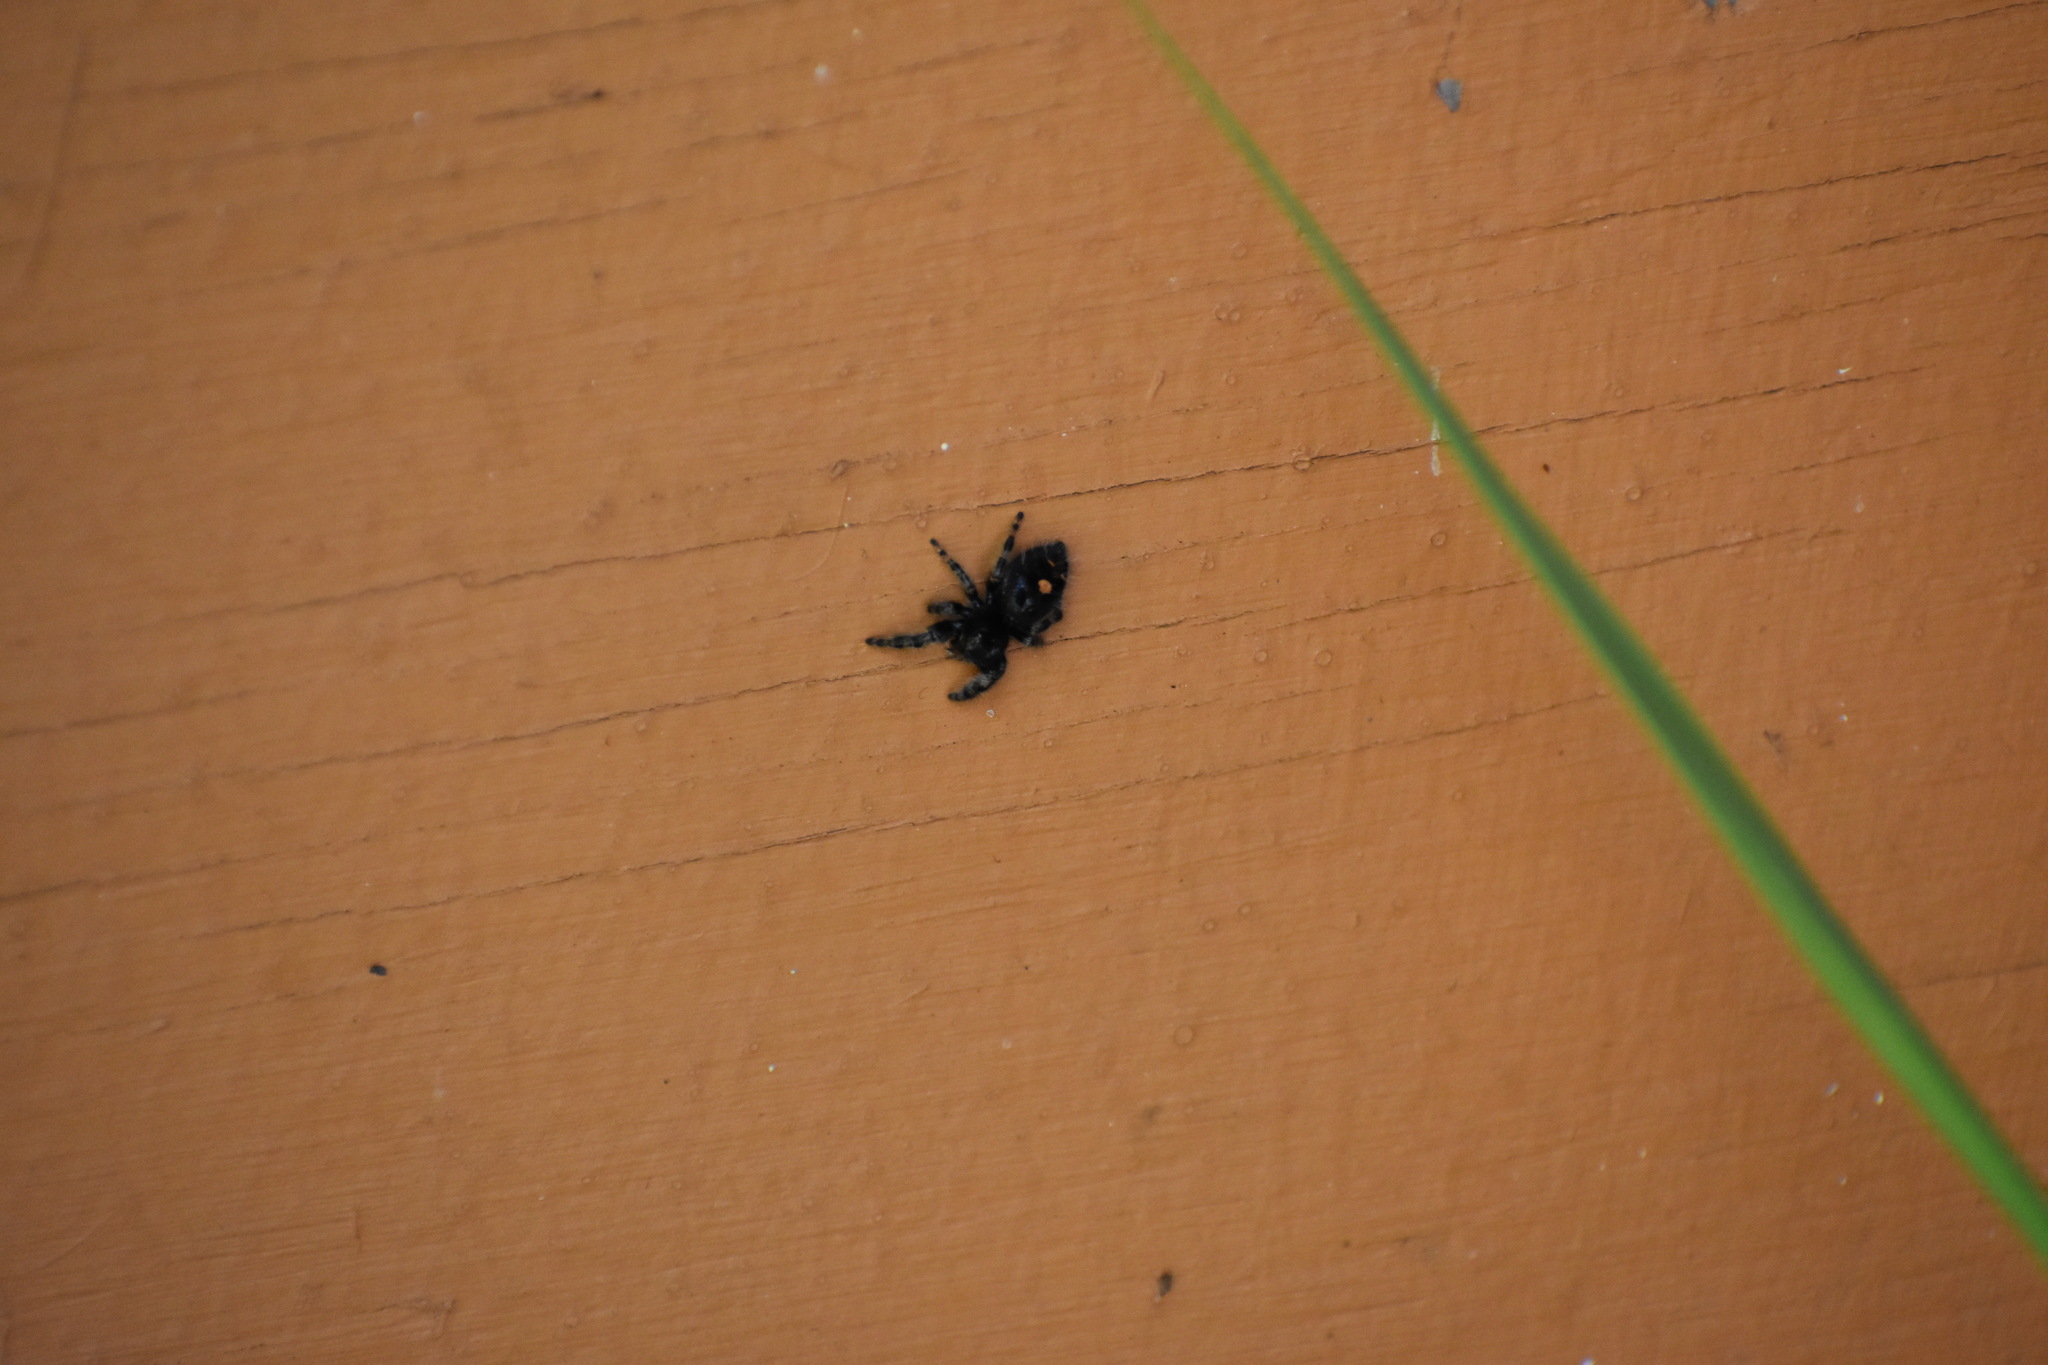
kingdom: Animalia
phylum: Arthropoda
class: Arachnida
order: Araneae
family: Salticidae
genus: Phidippus
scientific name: Phidippus audax
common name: Bold jumper
